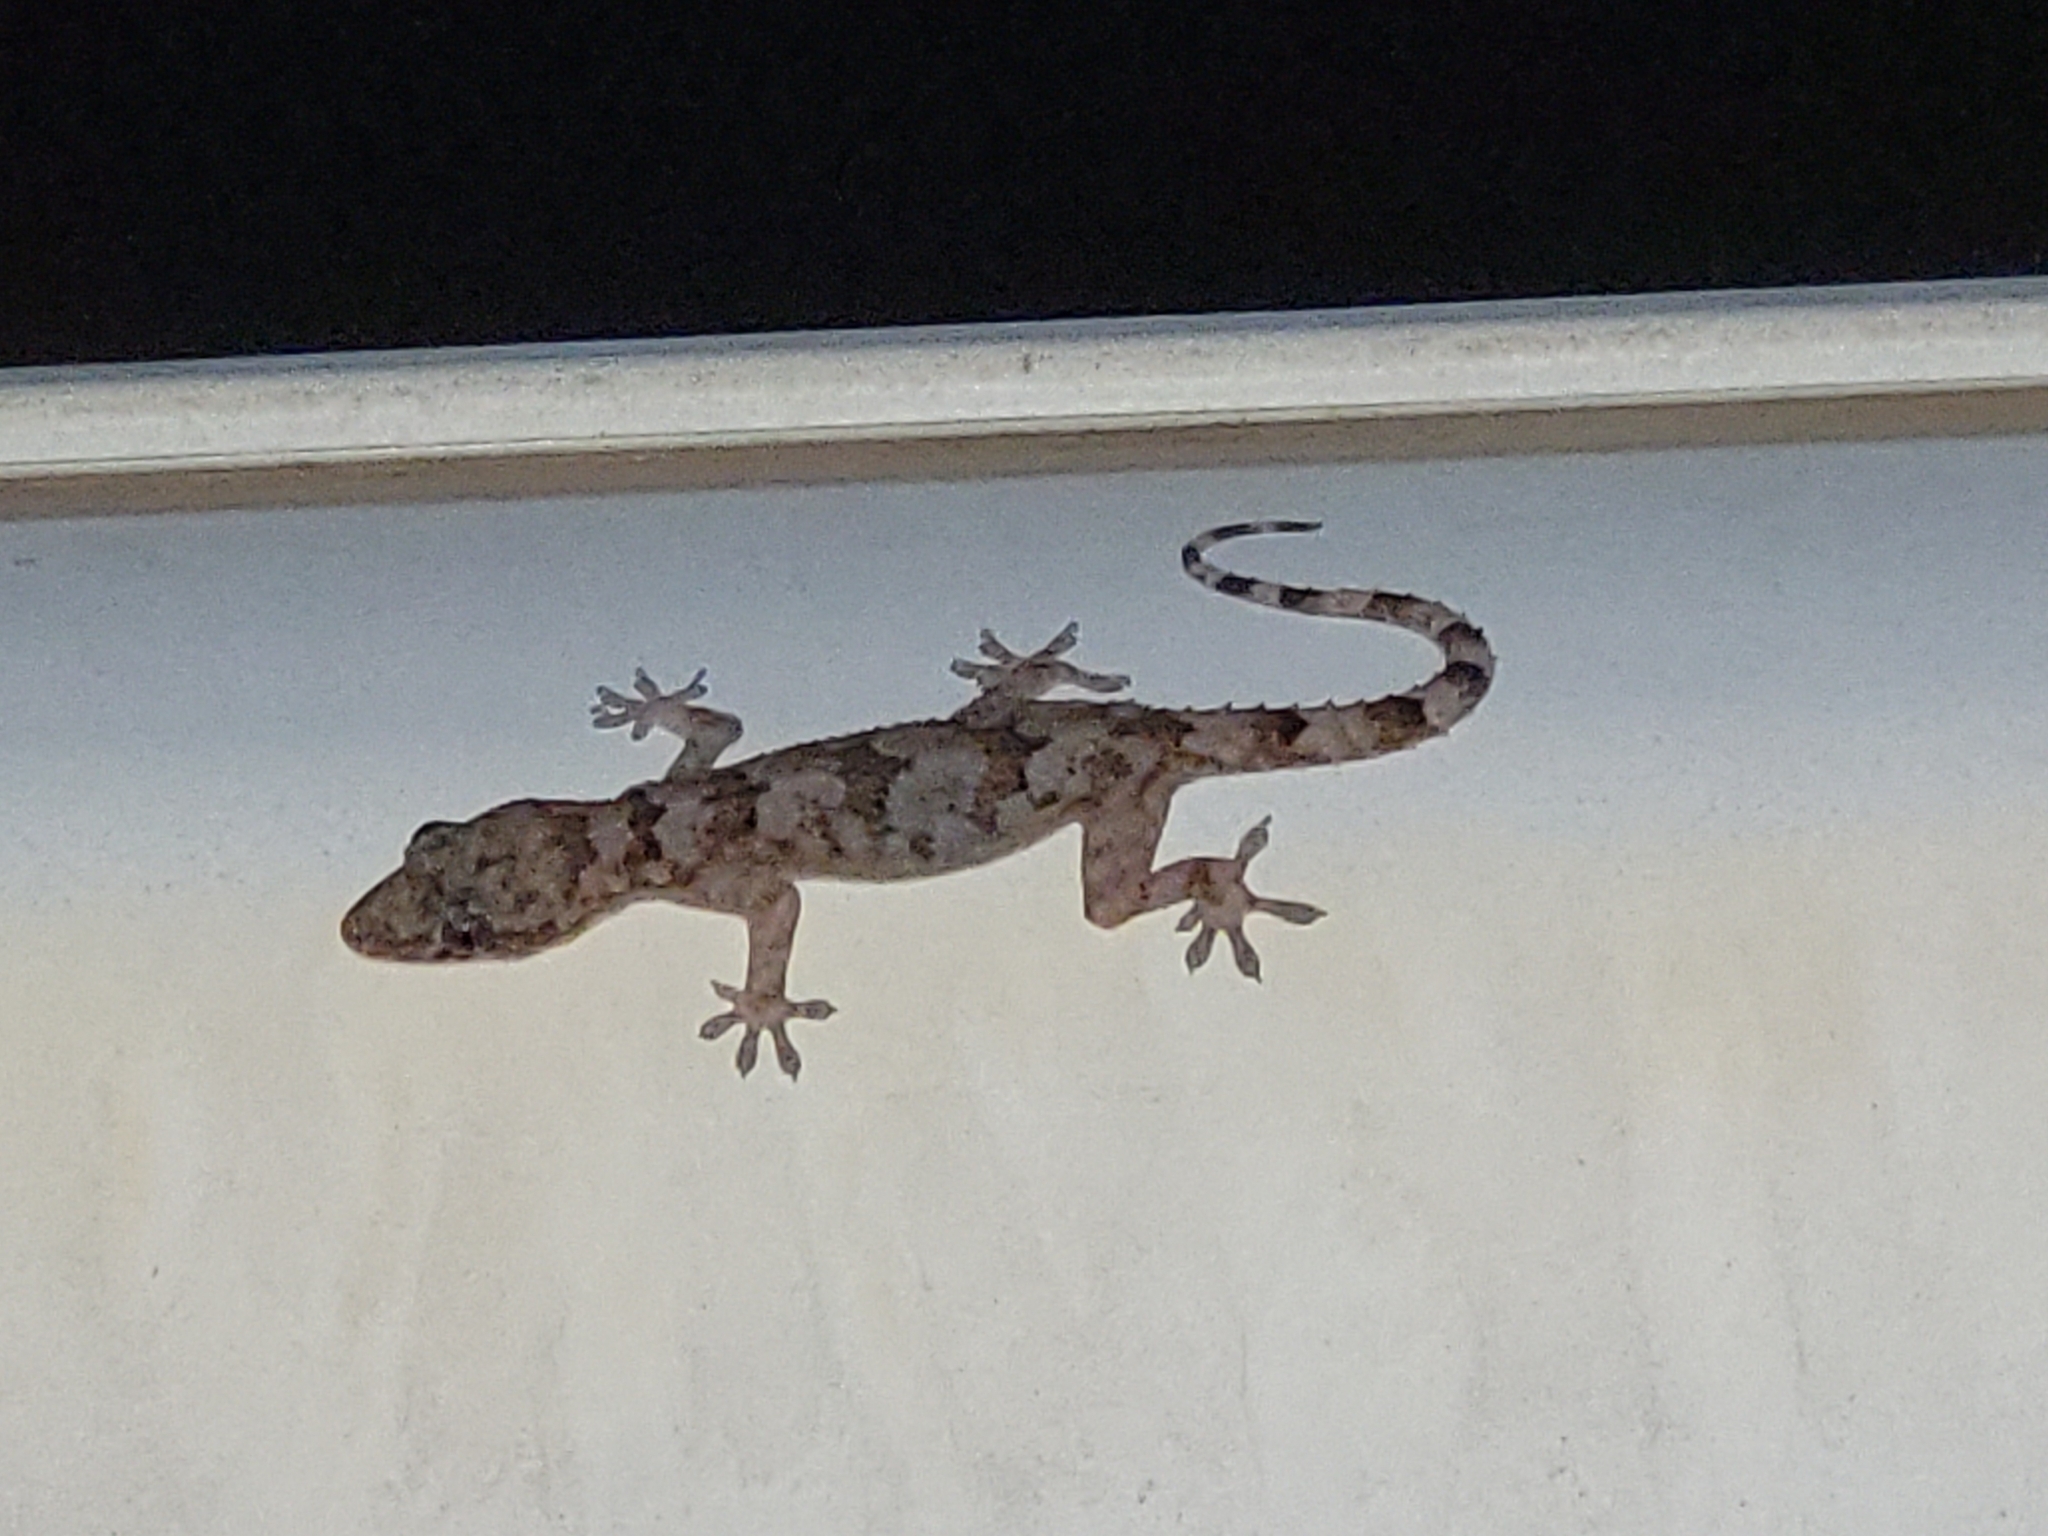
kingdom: Animalia
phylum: Chordata
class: Squamata
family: Gekkonidae
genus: Hemidactylus
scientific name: Hemidactylus mabouia
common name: House gecko
